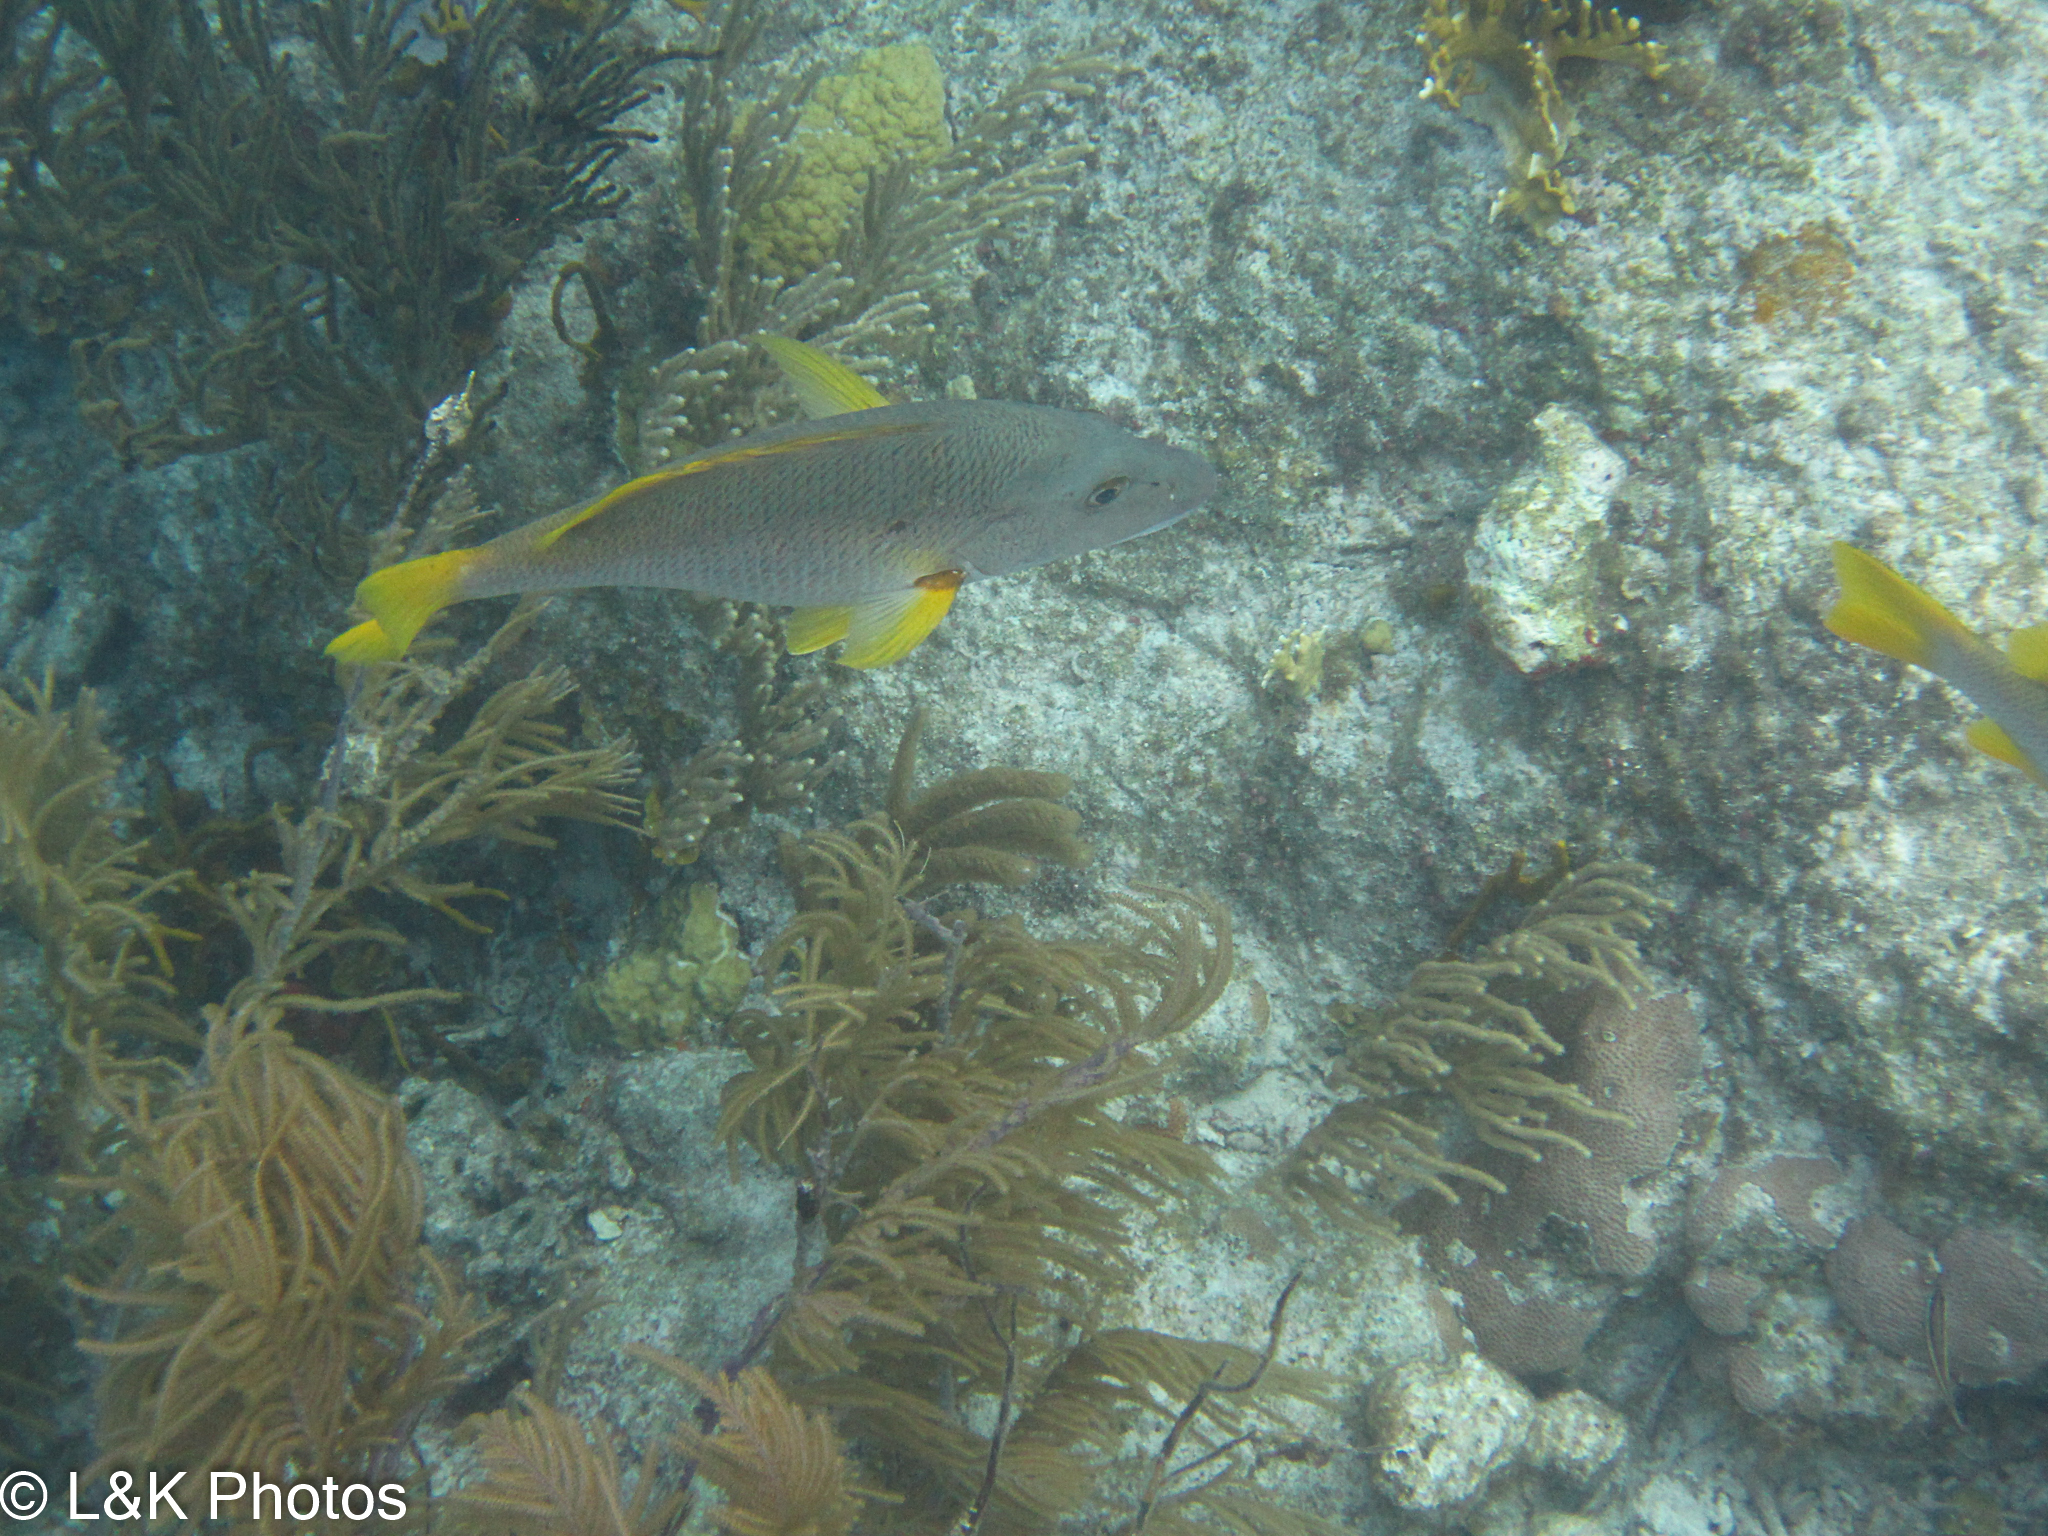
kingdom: Animalia
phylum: Chordata
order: Perciformes
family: Lutjanidae
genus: Lutjanus
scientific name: Lutjanus apodus
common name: Schoolmaster
